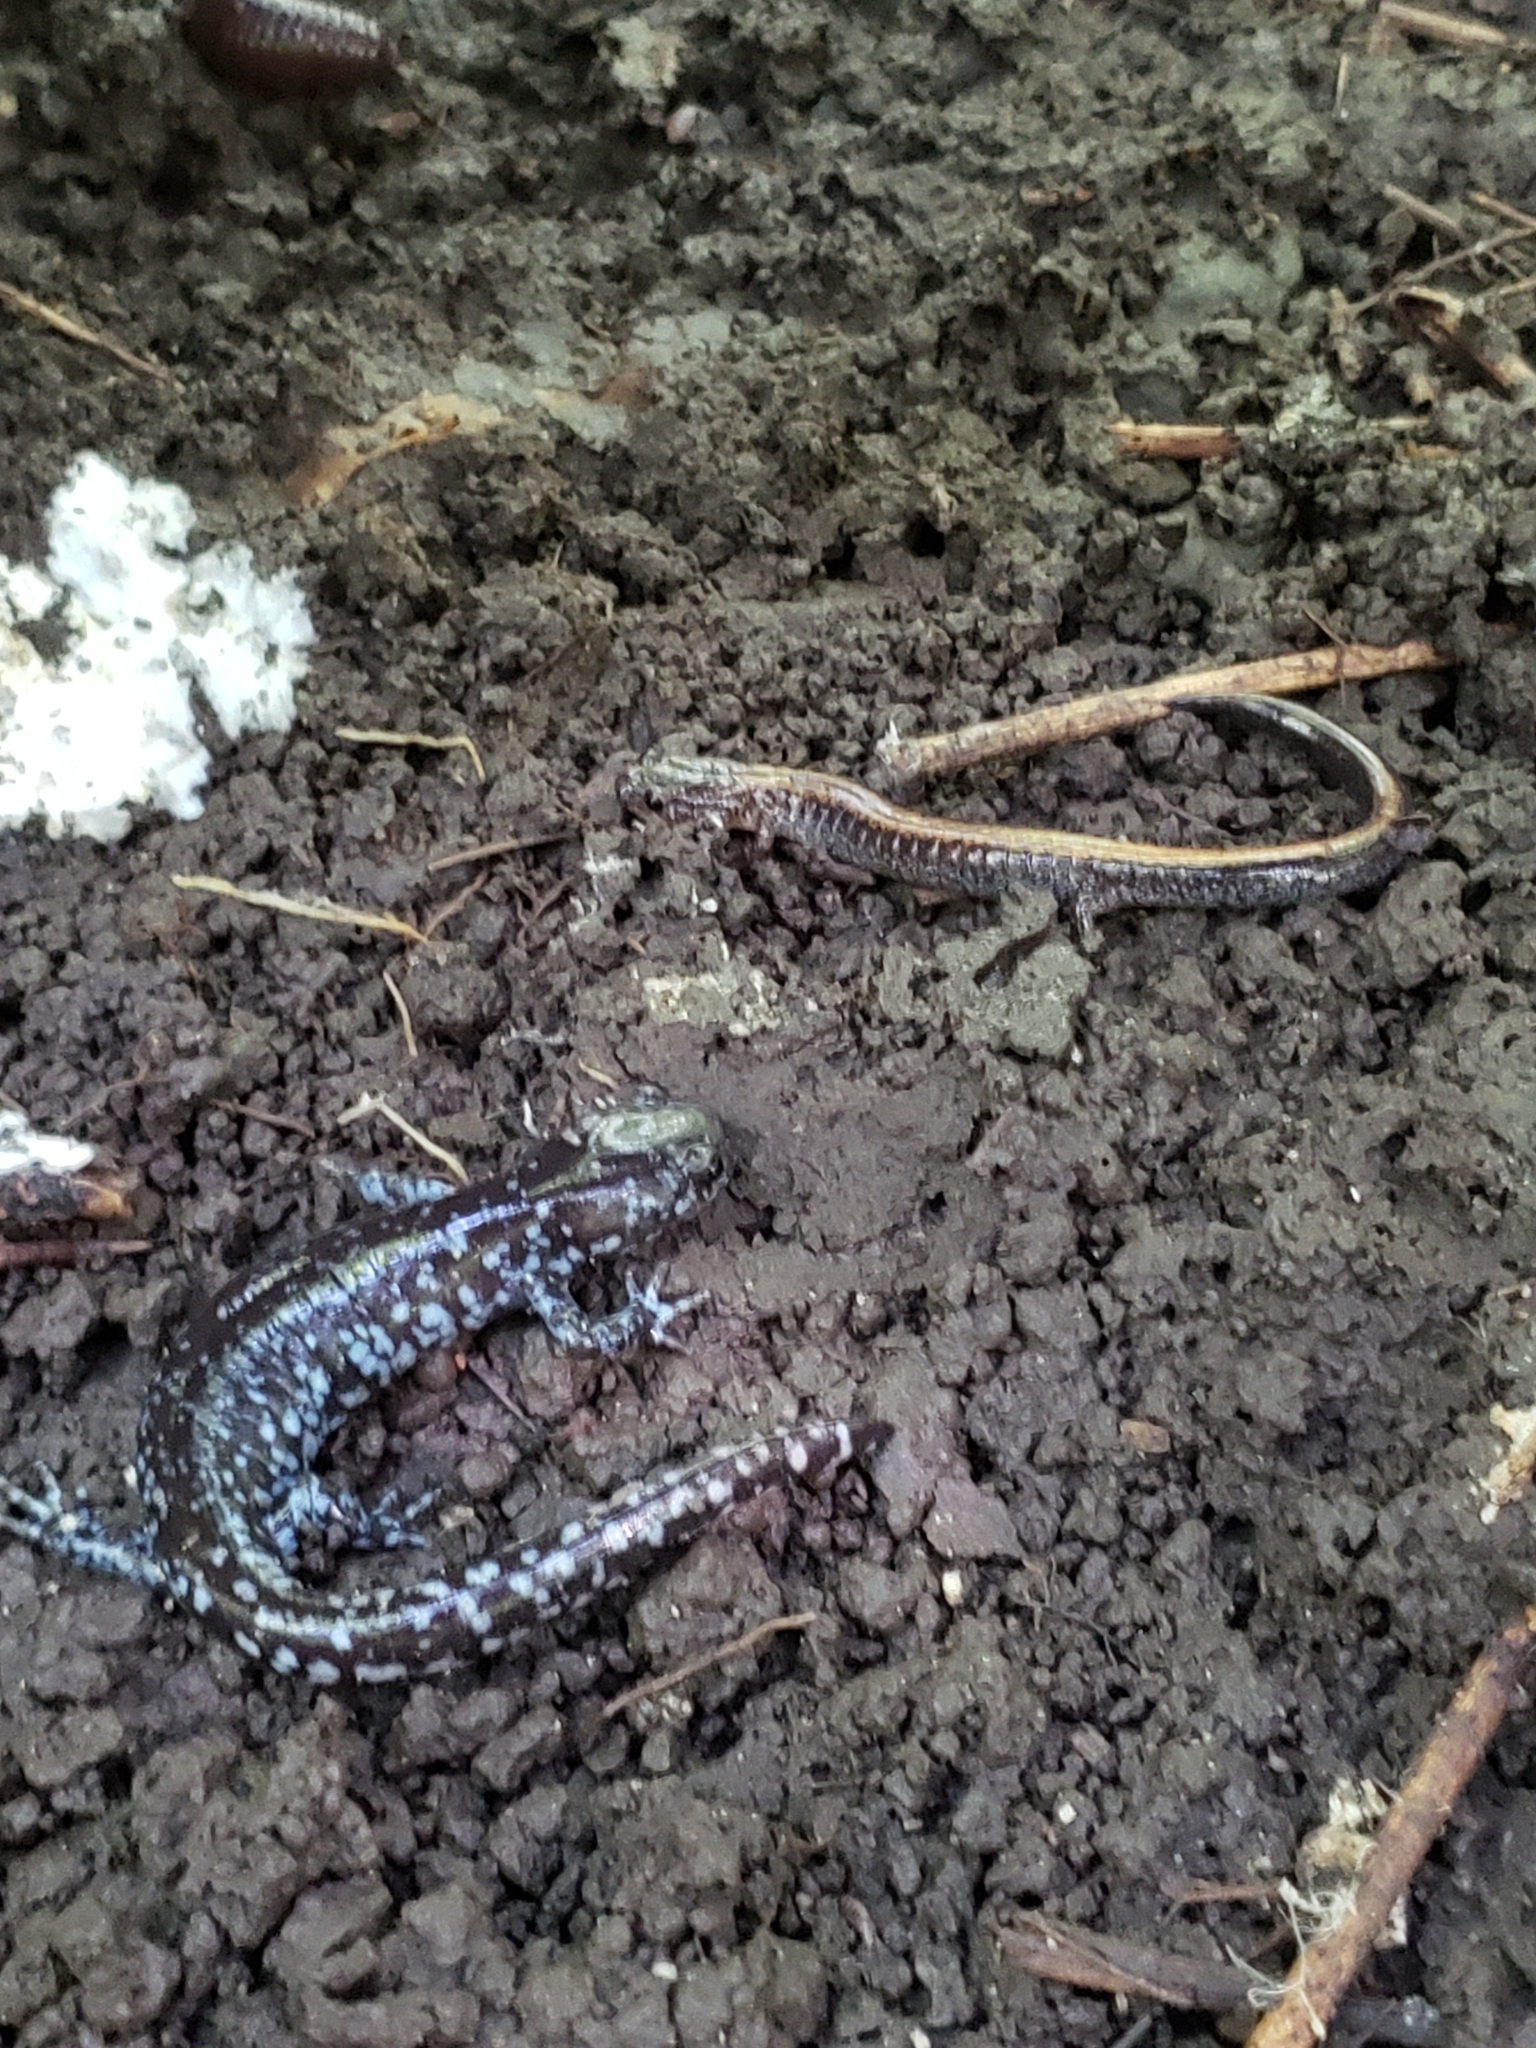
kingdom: Animalia
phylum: Chordata
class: Amphibia
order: Caudata
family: Ambystomatidae
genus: Ambystoma
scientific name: Ambystoma laterale
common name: Blue-spotted salamander
